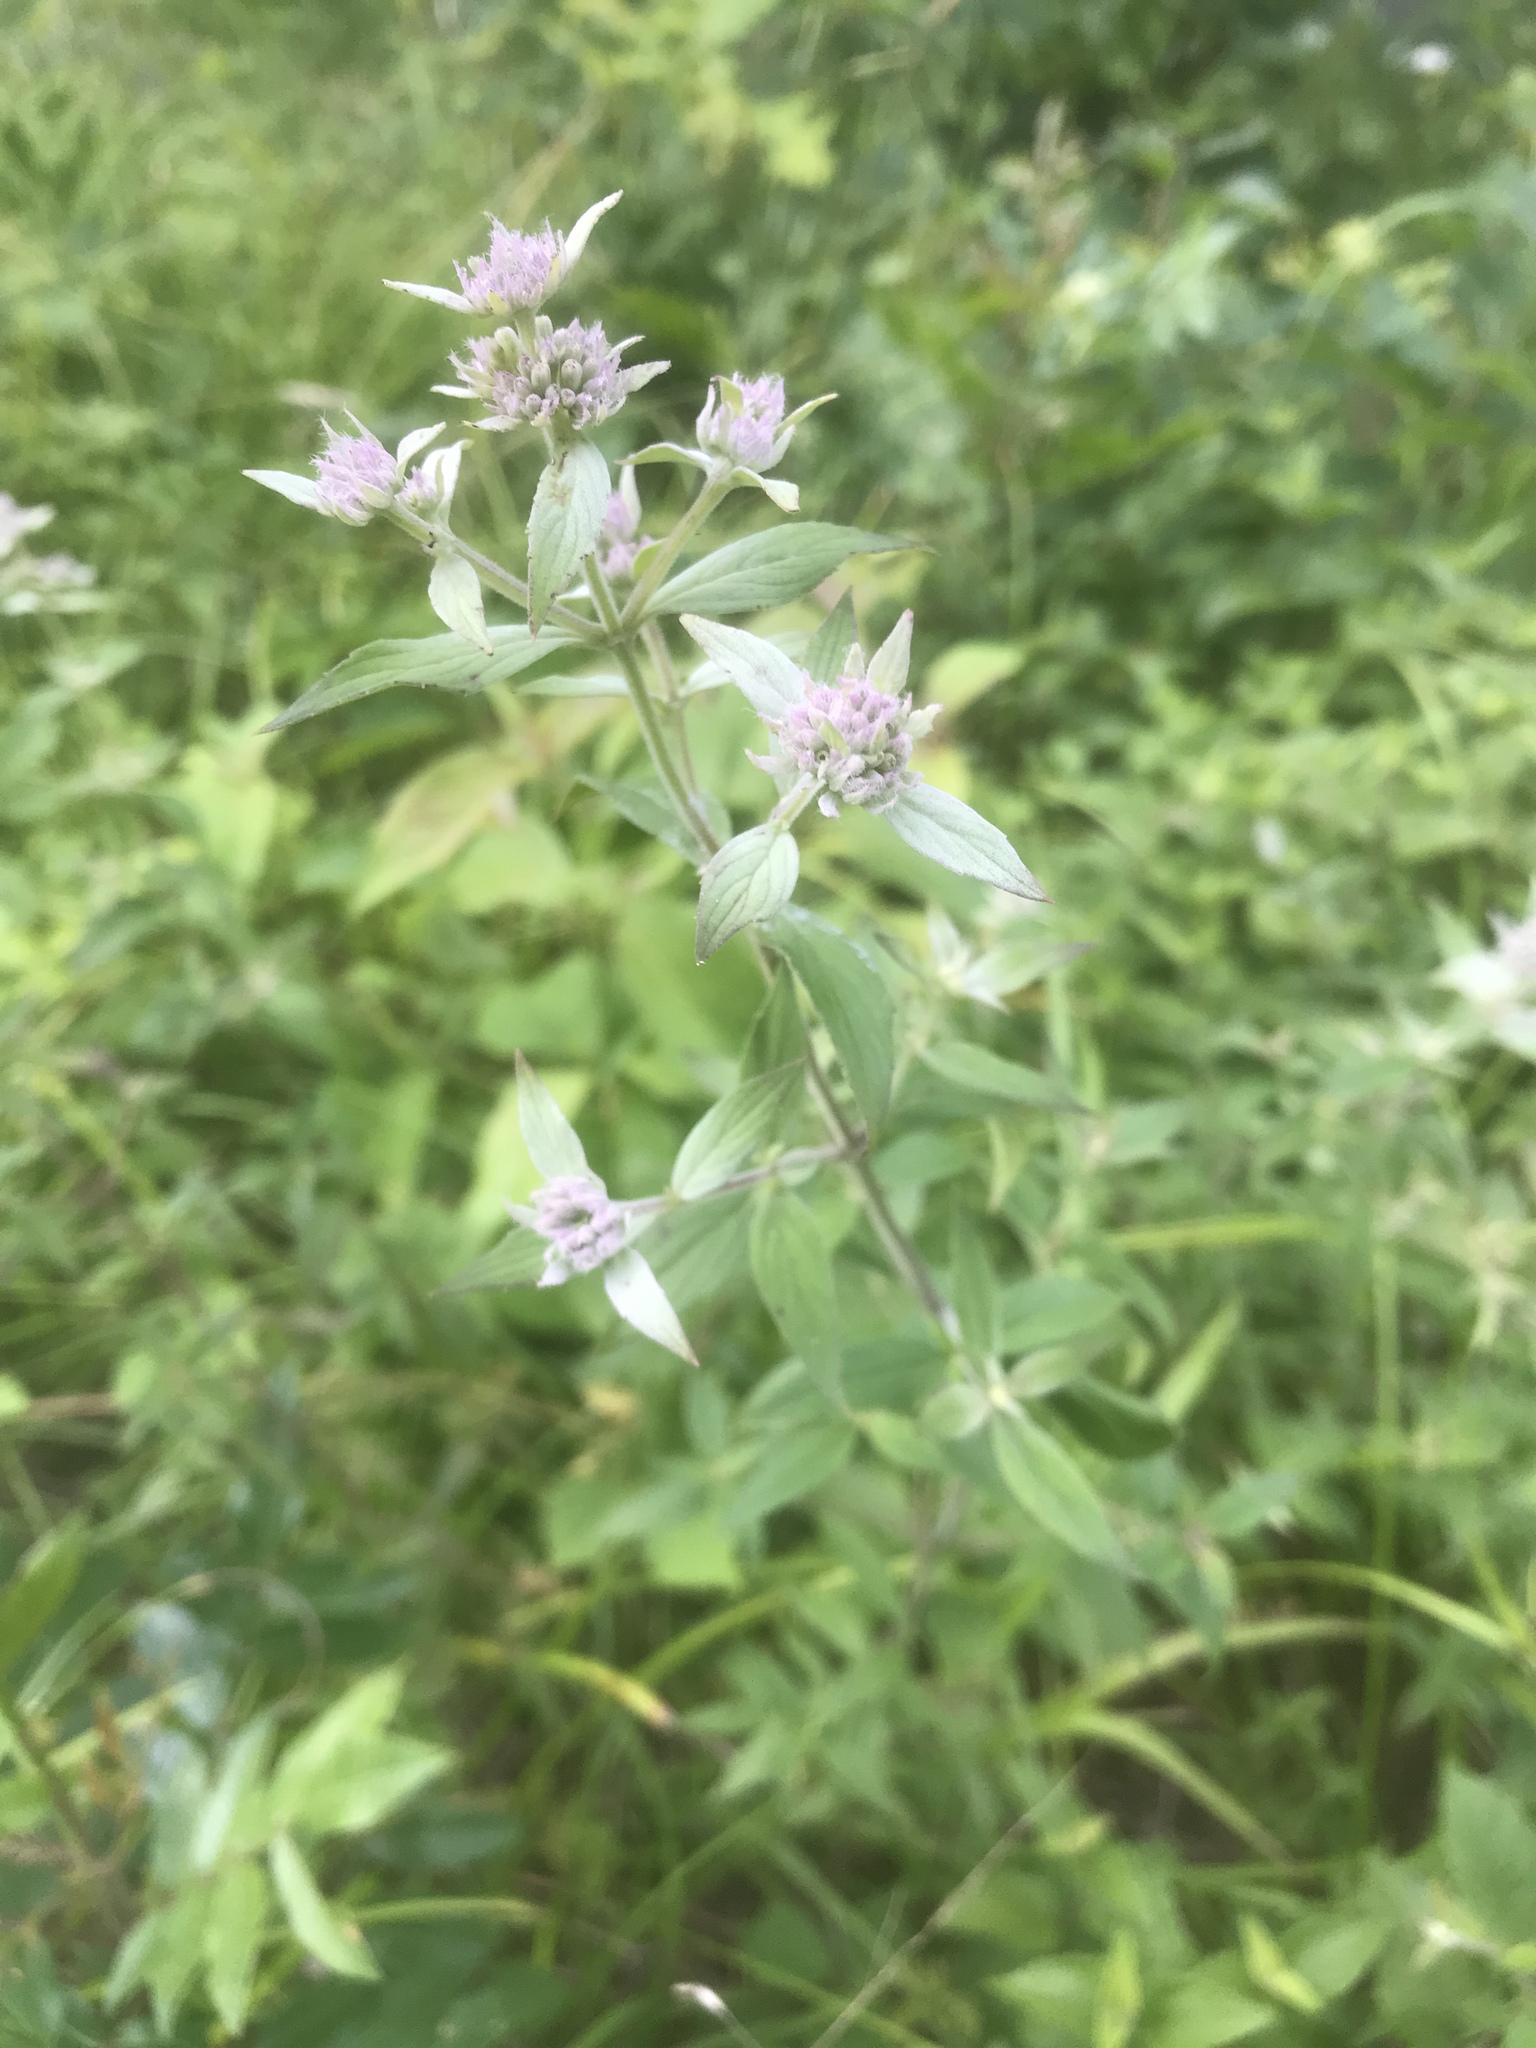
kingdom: Plantae
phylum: Tracheophyta
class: Magnoliopsida
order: Lamiales
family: Lamiaceae
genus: Pycnanthemum
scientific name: Pycnanthemum verticillatum
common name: Whorled mountain-mint
